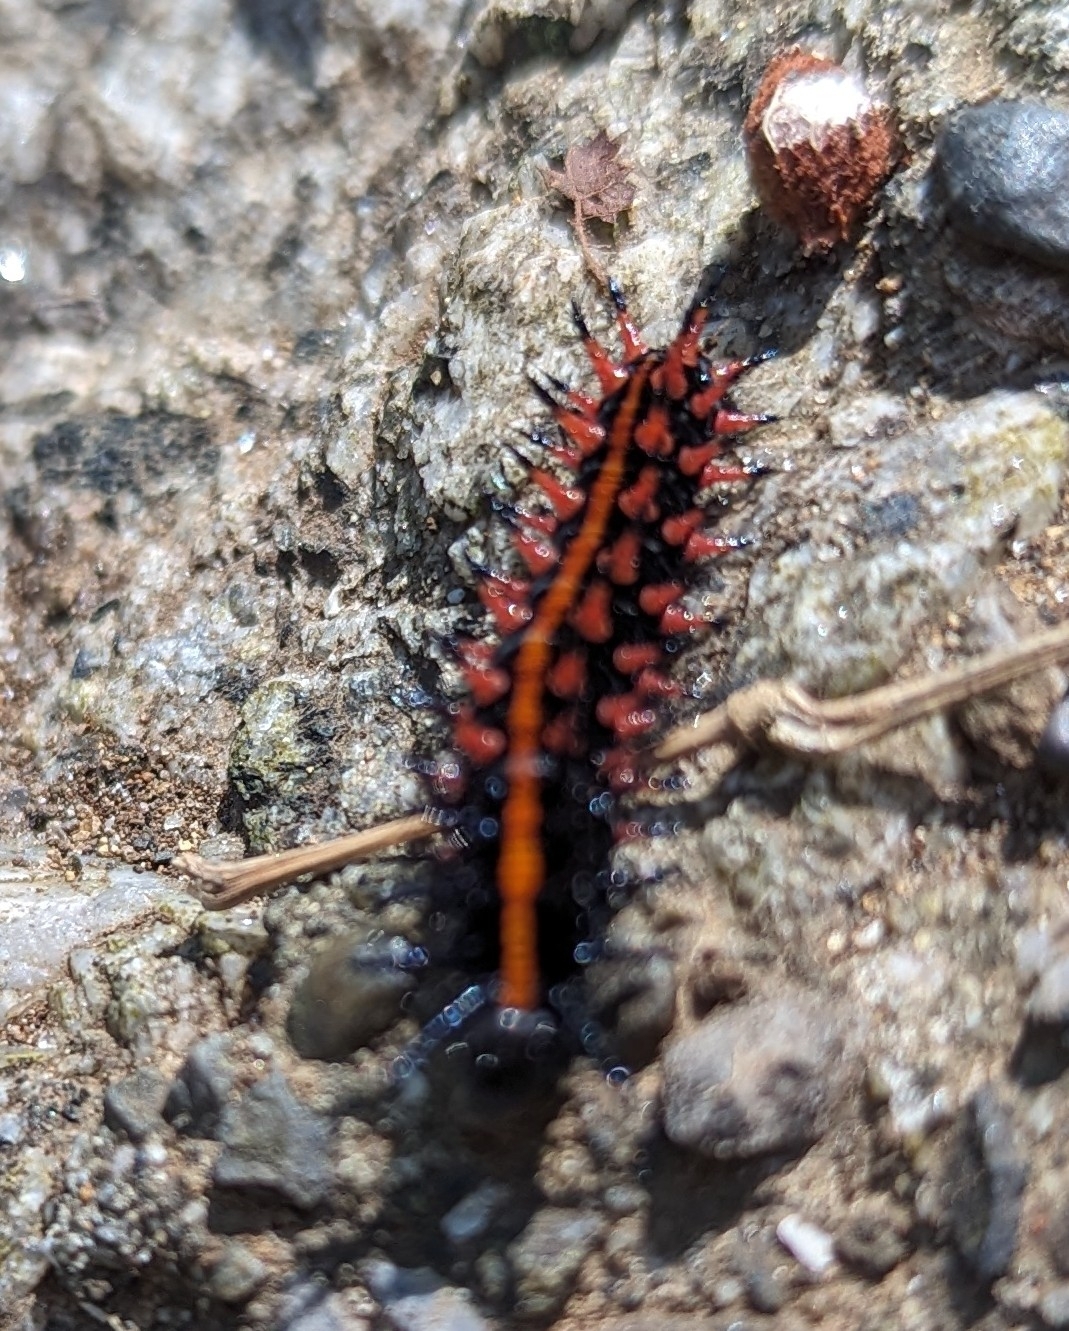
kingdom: Animalia
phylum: Arthropoda
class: Insecta
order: Lepidoptera
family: Nymphalidae
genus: Argynnis
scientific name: Argynnis hyperbius
